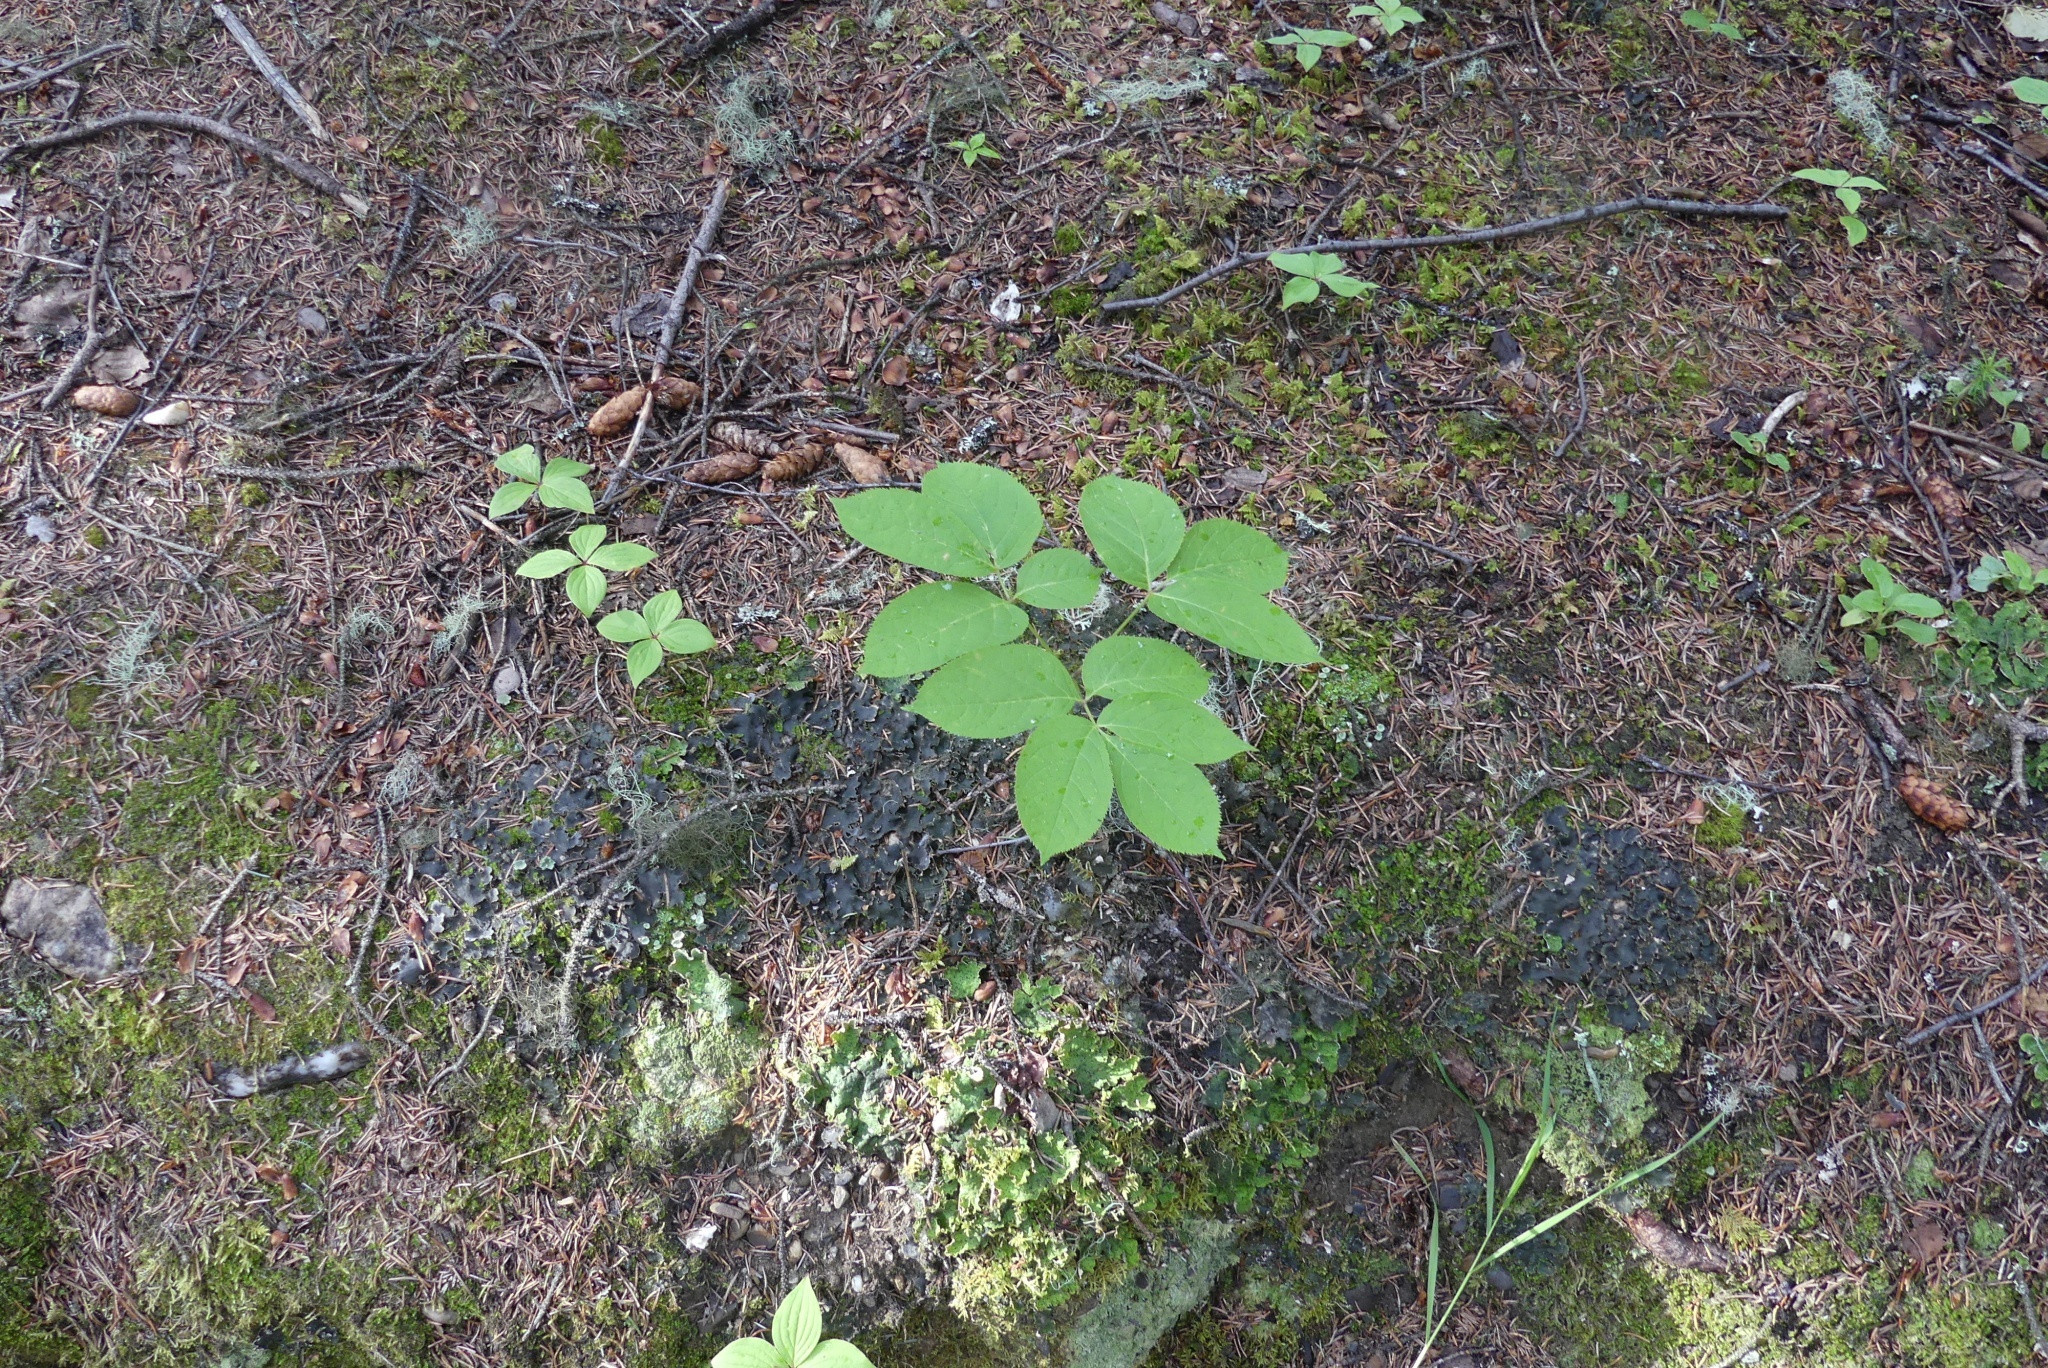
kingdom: Plantae
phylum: Tracheophyta
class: Magnoliopsida
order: Apiales
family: Araliaceae
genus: Aralia
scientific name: Aralia nudicaulis
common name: Wild sarsaparilla
